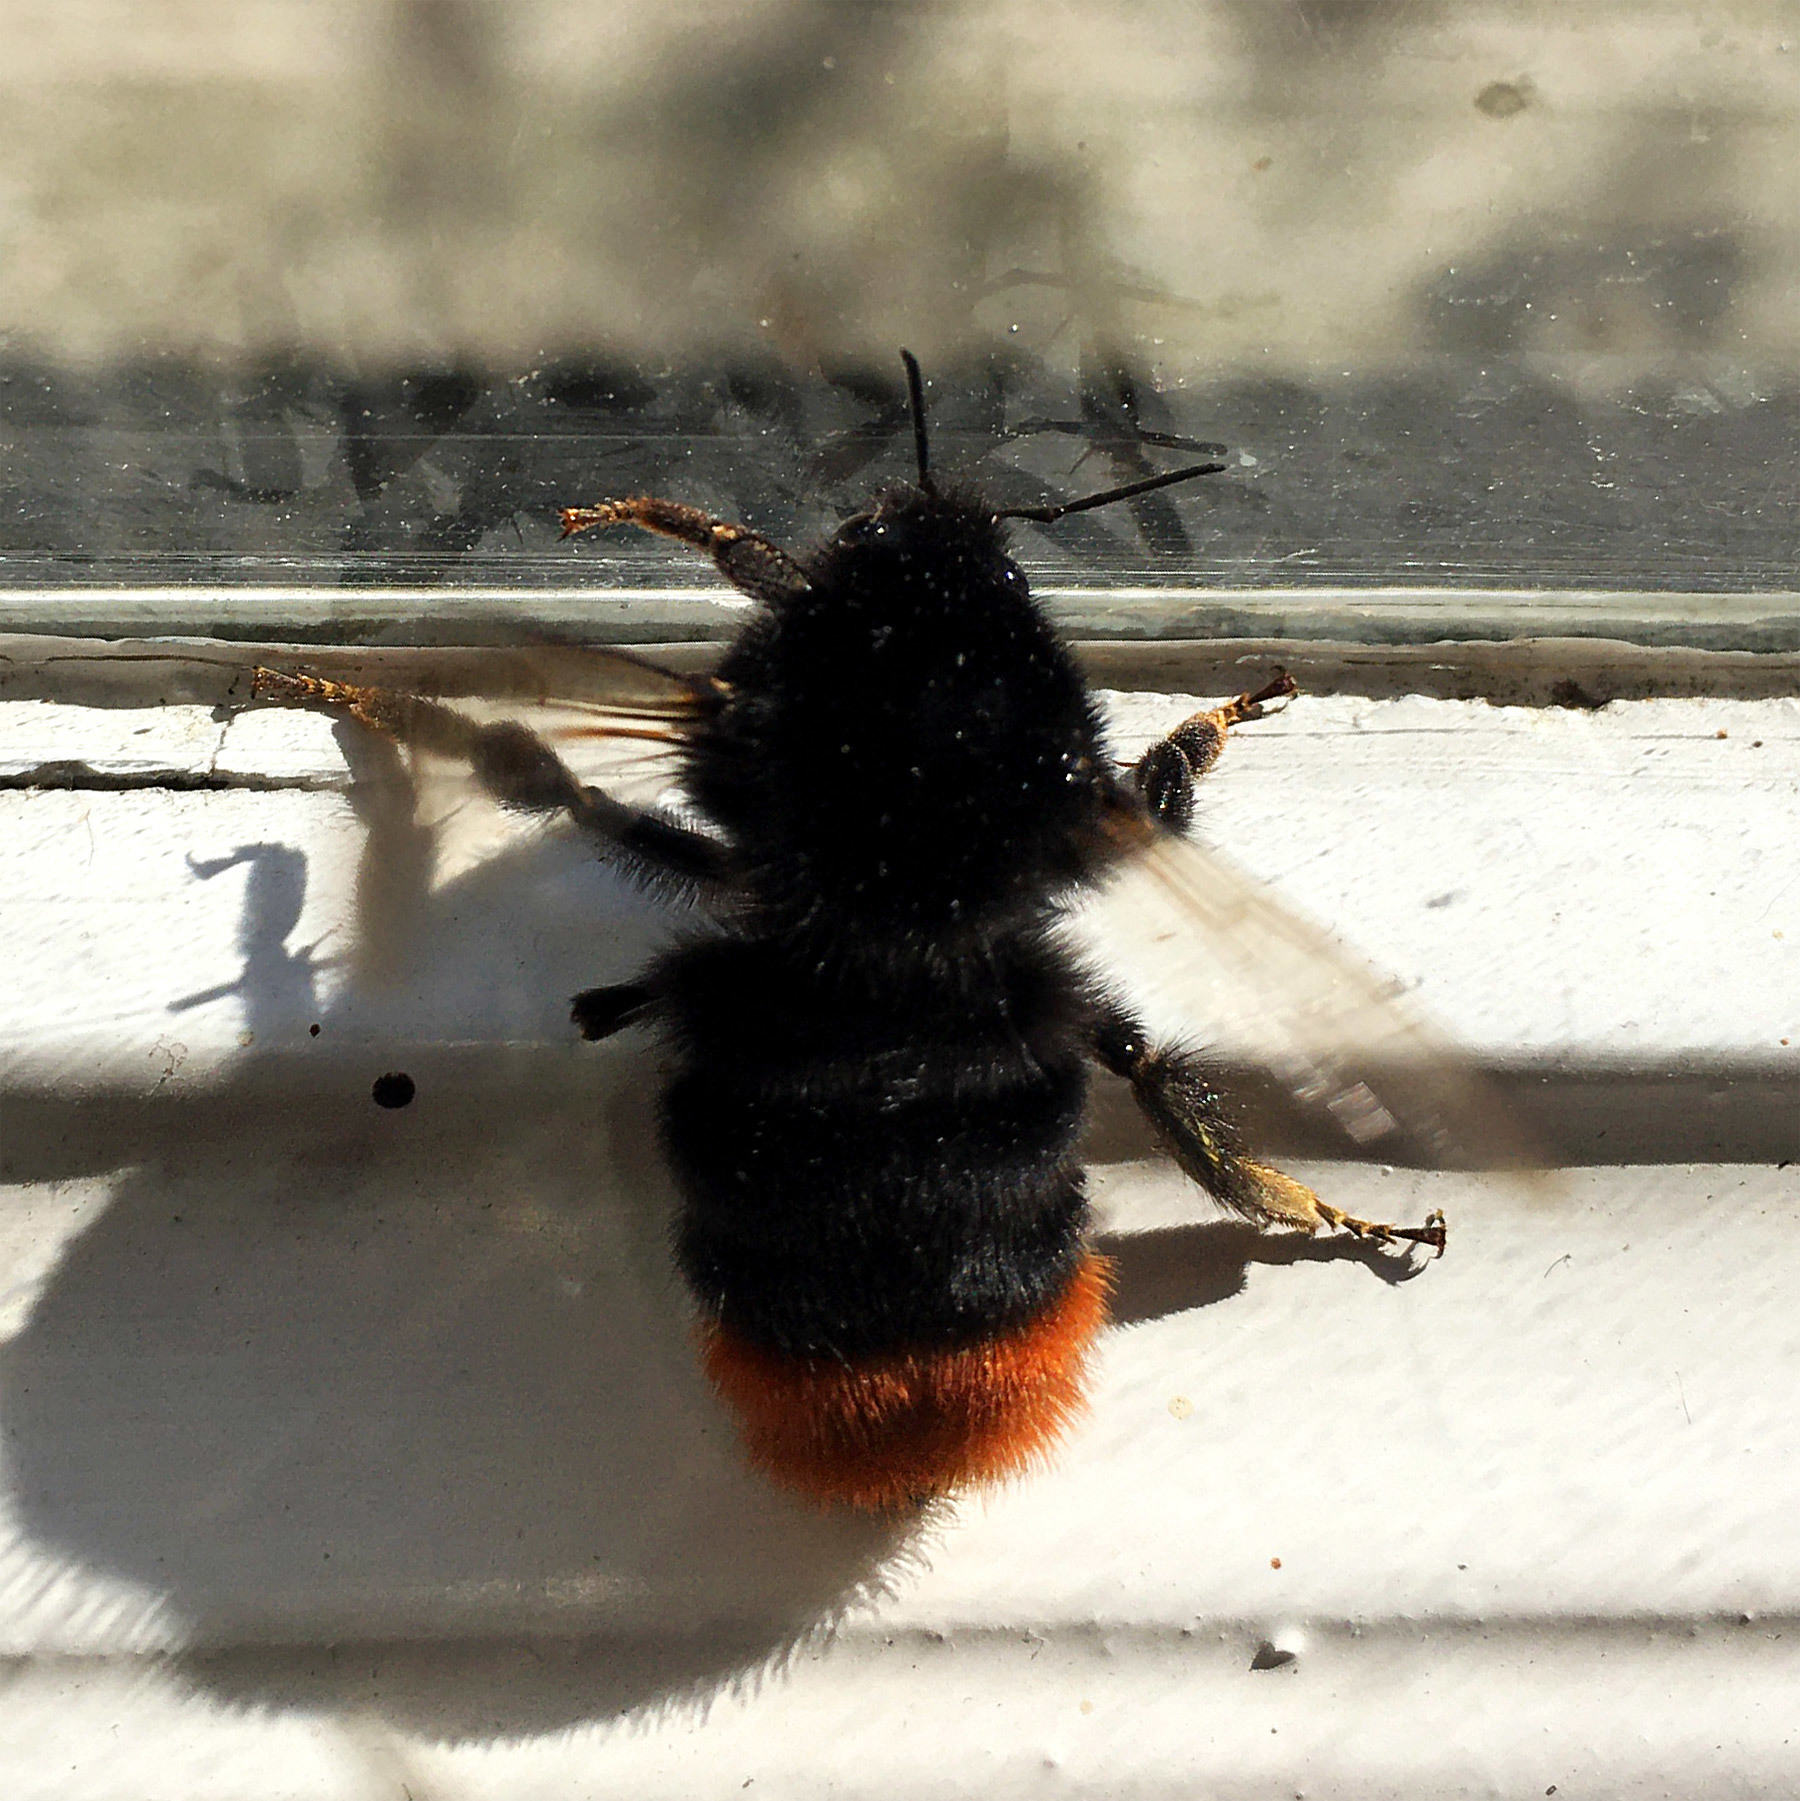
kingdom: Animalia
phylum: Arthropoda
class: Insecta
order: Hymenoptera
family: Apidae
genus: Bombus
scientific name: Bombus lapidarius
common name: Large red-tailed humble-bee
